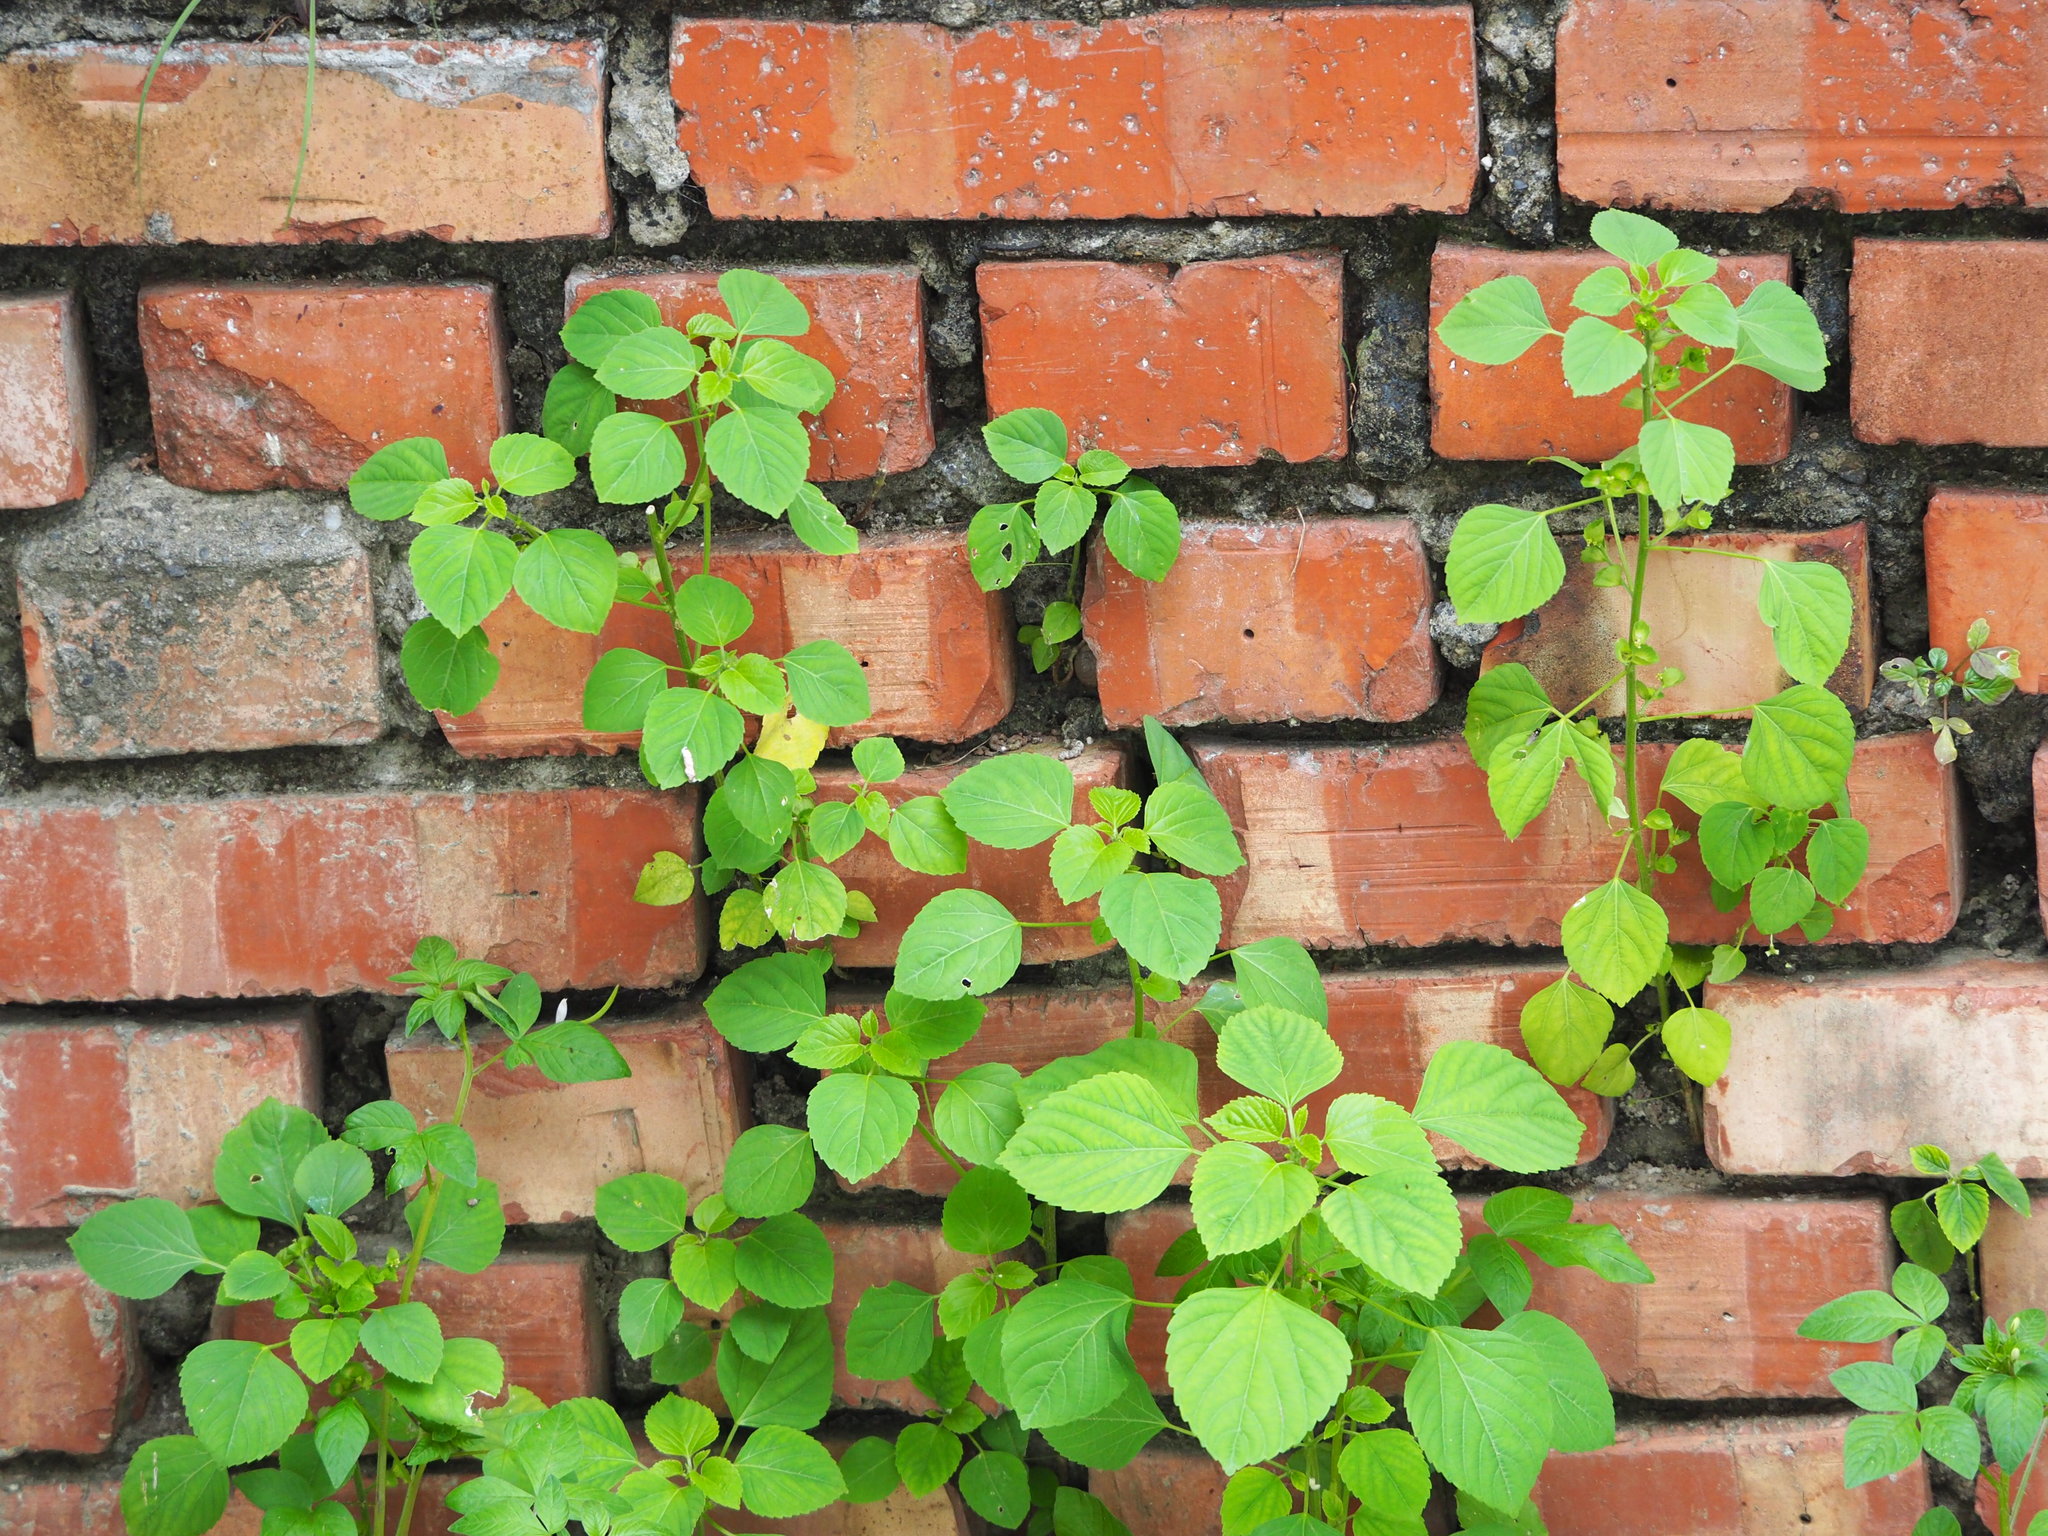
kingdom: Plantae
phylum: Tracheophyta
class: Magnoliopsida
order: Malpighiales
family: Euphorbiaceae
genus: Acalypha
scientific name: Acalypha indica
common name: Indian acalypha
